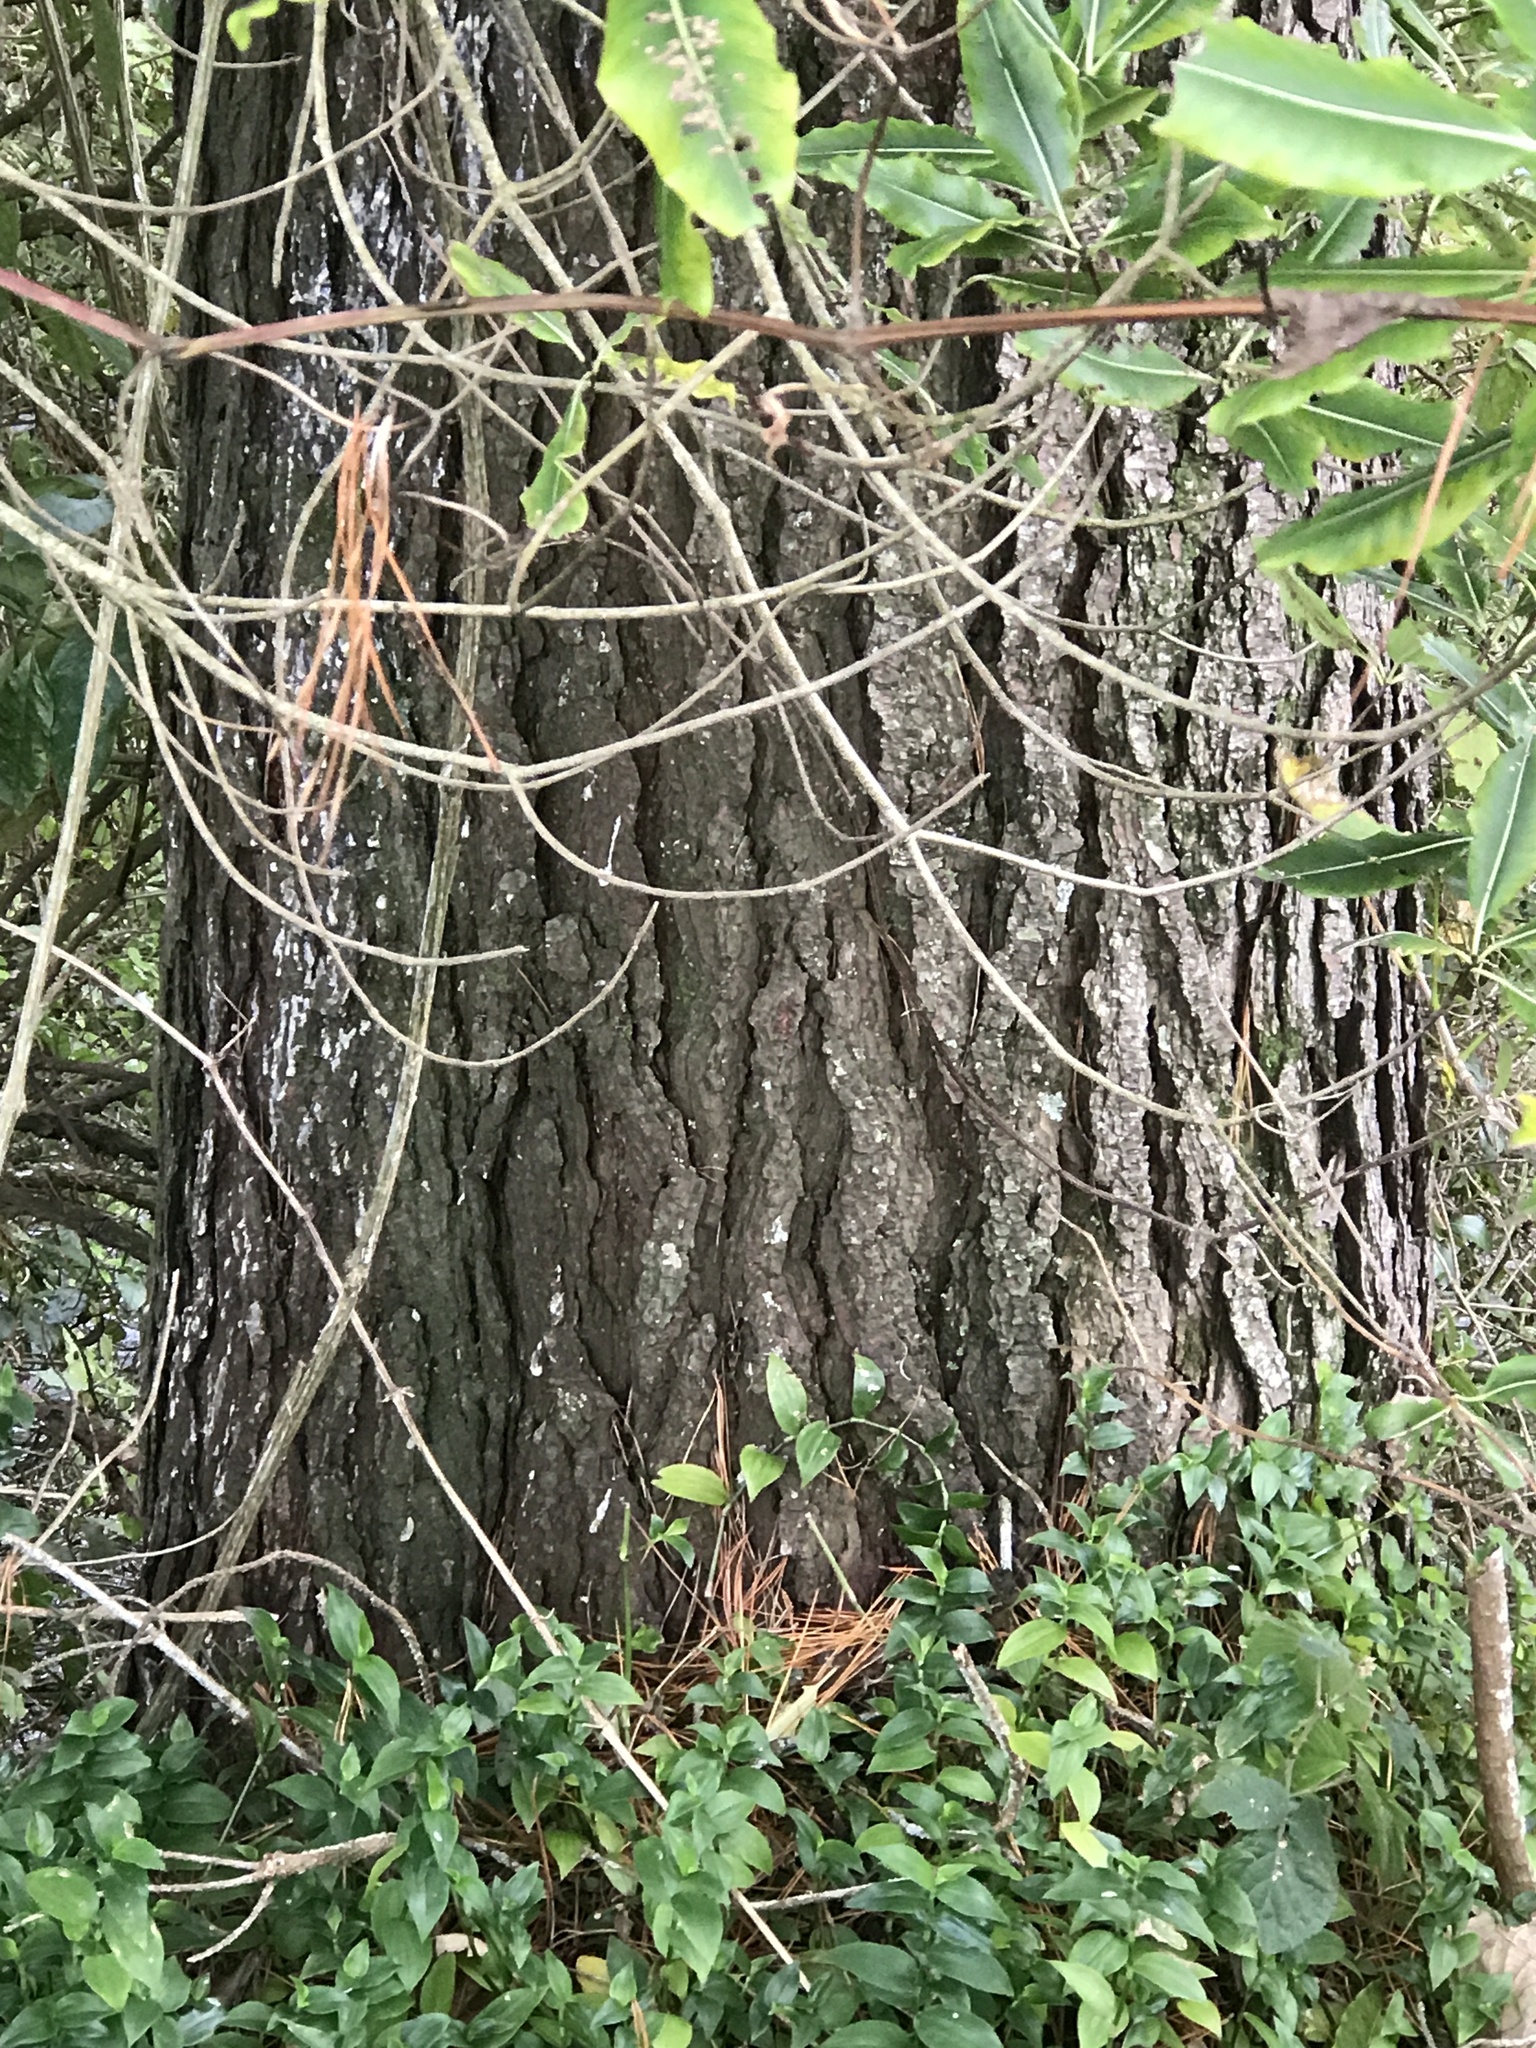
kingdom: Plantae
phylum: Tracheophyta
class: Pinopsida
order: Pinales
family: Pinaceae
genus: Pinus
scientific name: Pinus radiata
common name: Monterey pine
